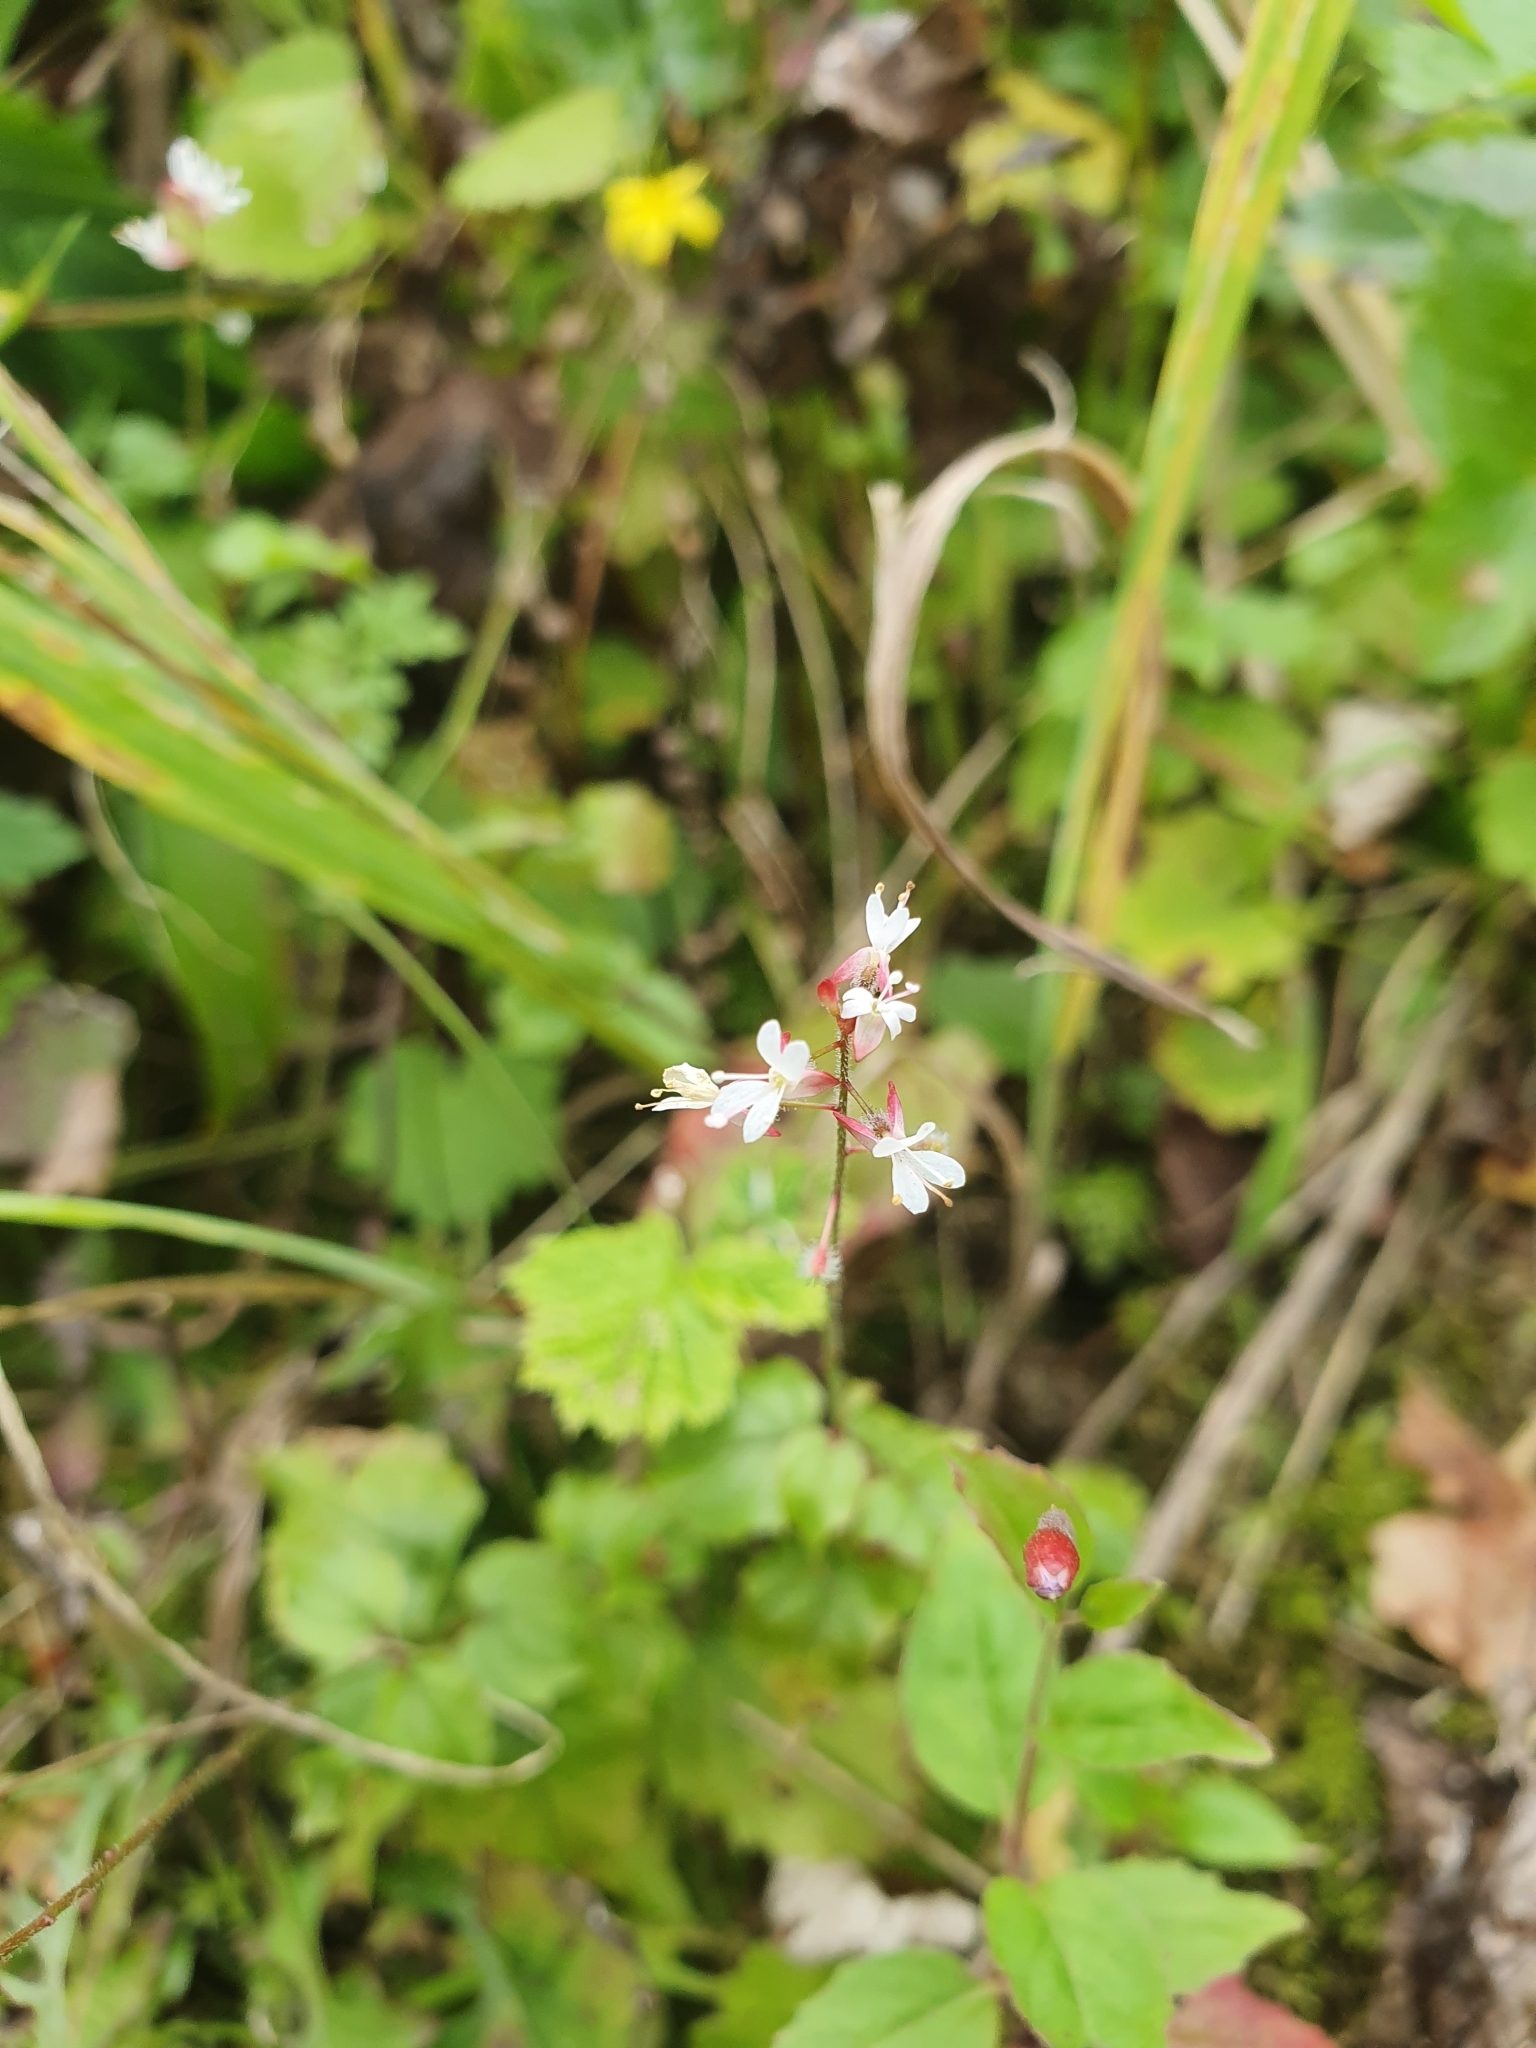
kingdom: Plantae
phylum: Tracheophyta
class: Magnoliopsida
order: Myrtales
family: Onagraceae
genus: Circaea
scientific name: Circaea lutetiana
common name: Enchanter's-nightshade
